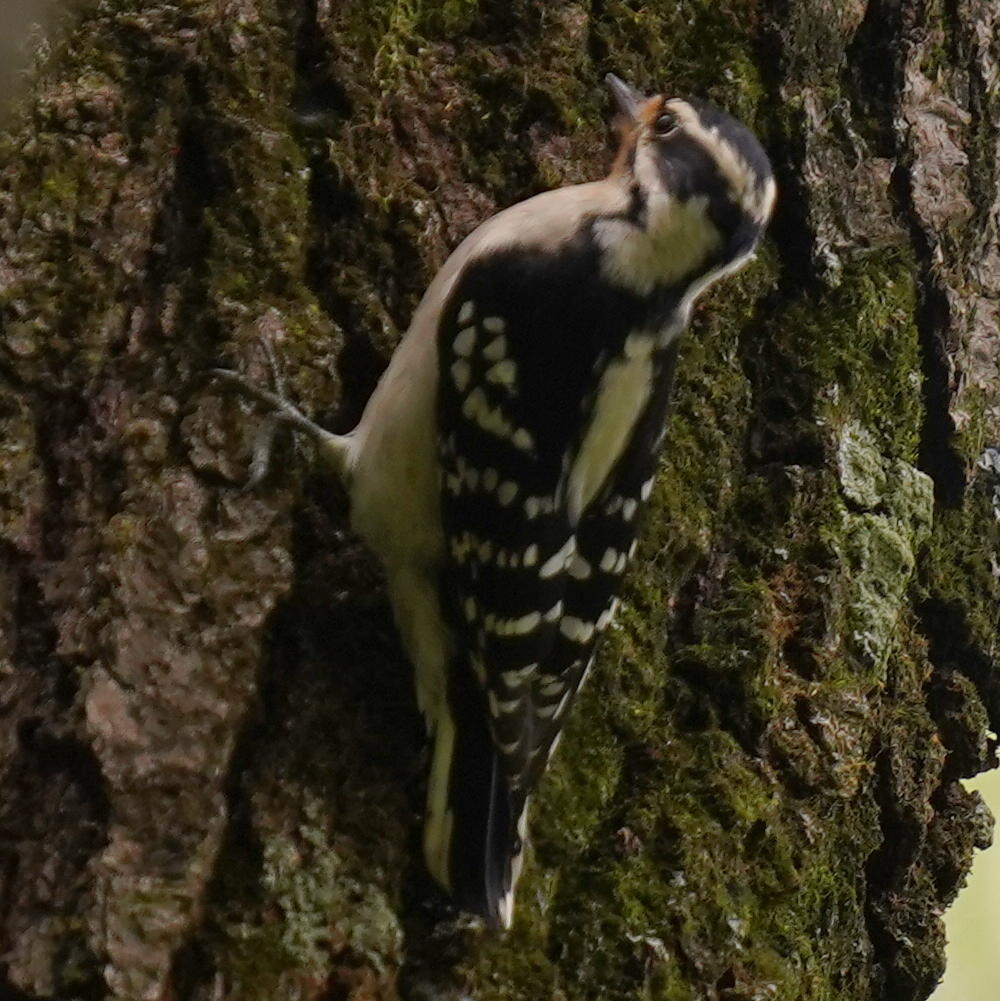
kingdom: Animalia
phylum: Chordata
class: Aves
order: Piciformes
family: Picidae
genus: Dryobates
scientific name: Dryobates pubescens
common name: Downy woodpecker
